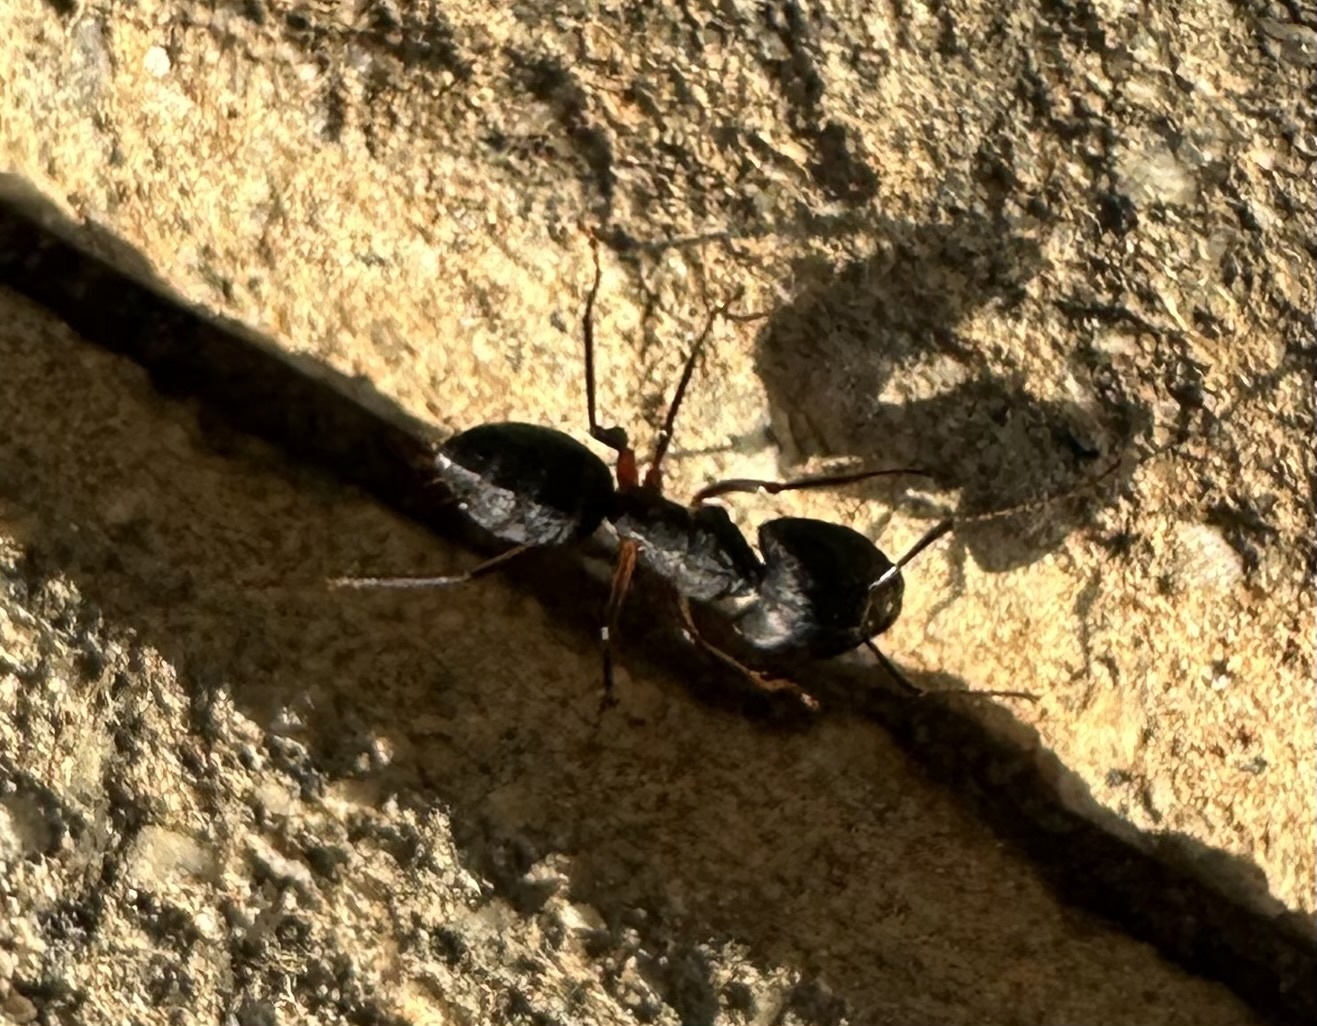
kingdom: Animalia
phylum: Arthropoda
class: Insecta
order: Hymenoptera
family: Formicidae
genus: Camponotus
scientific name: Camponotus compressus
